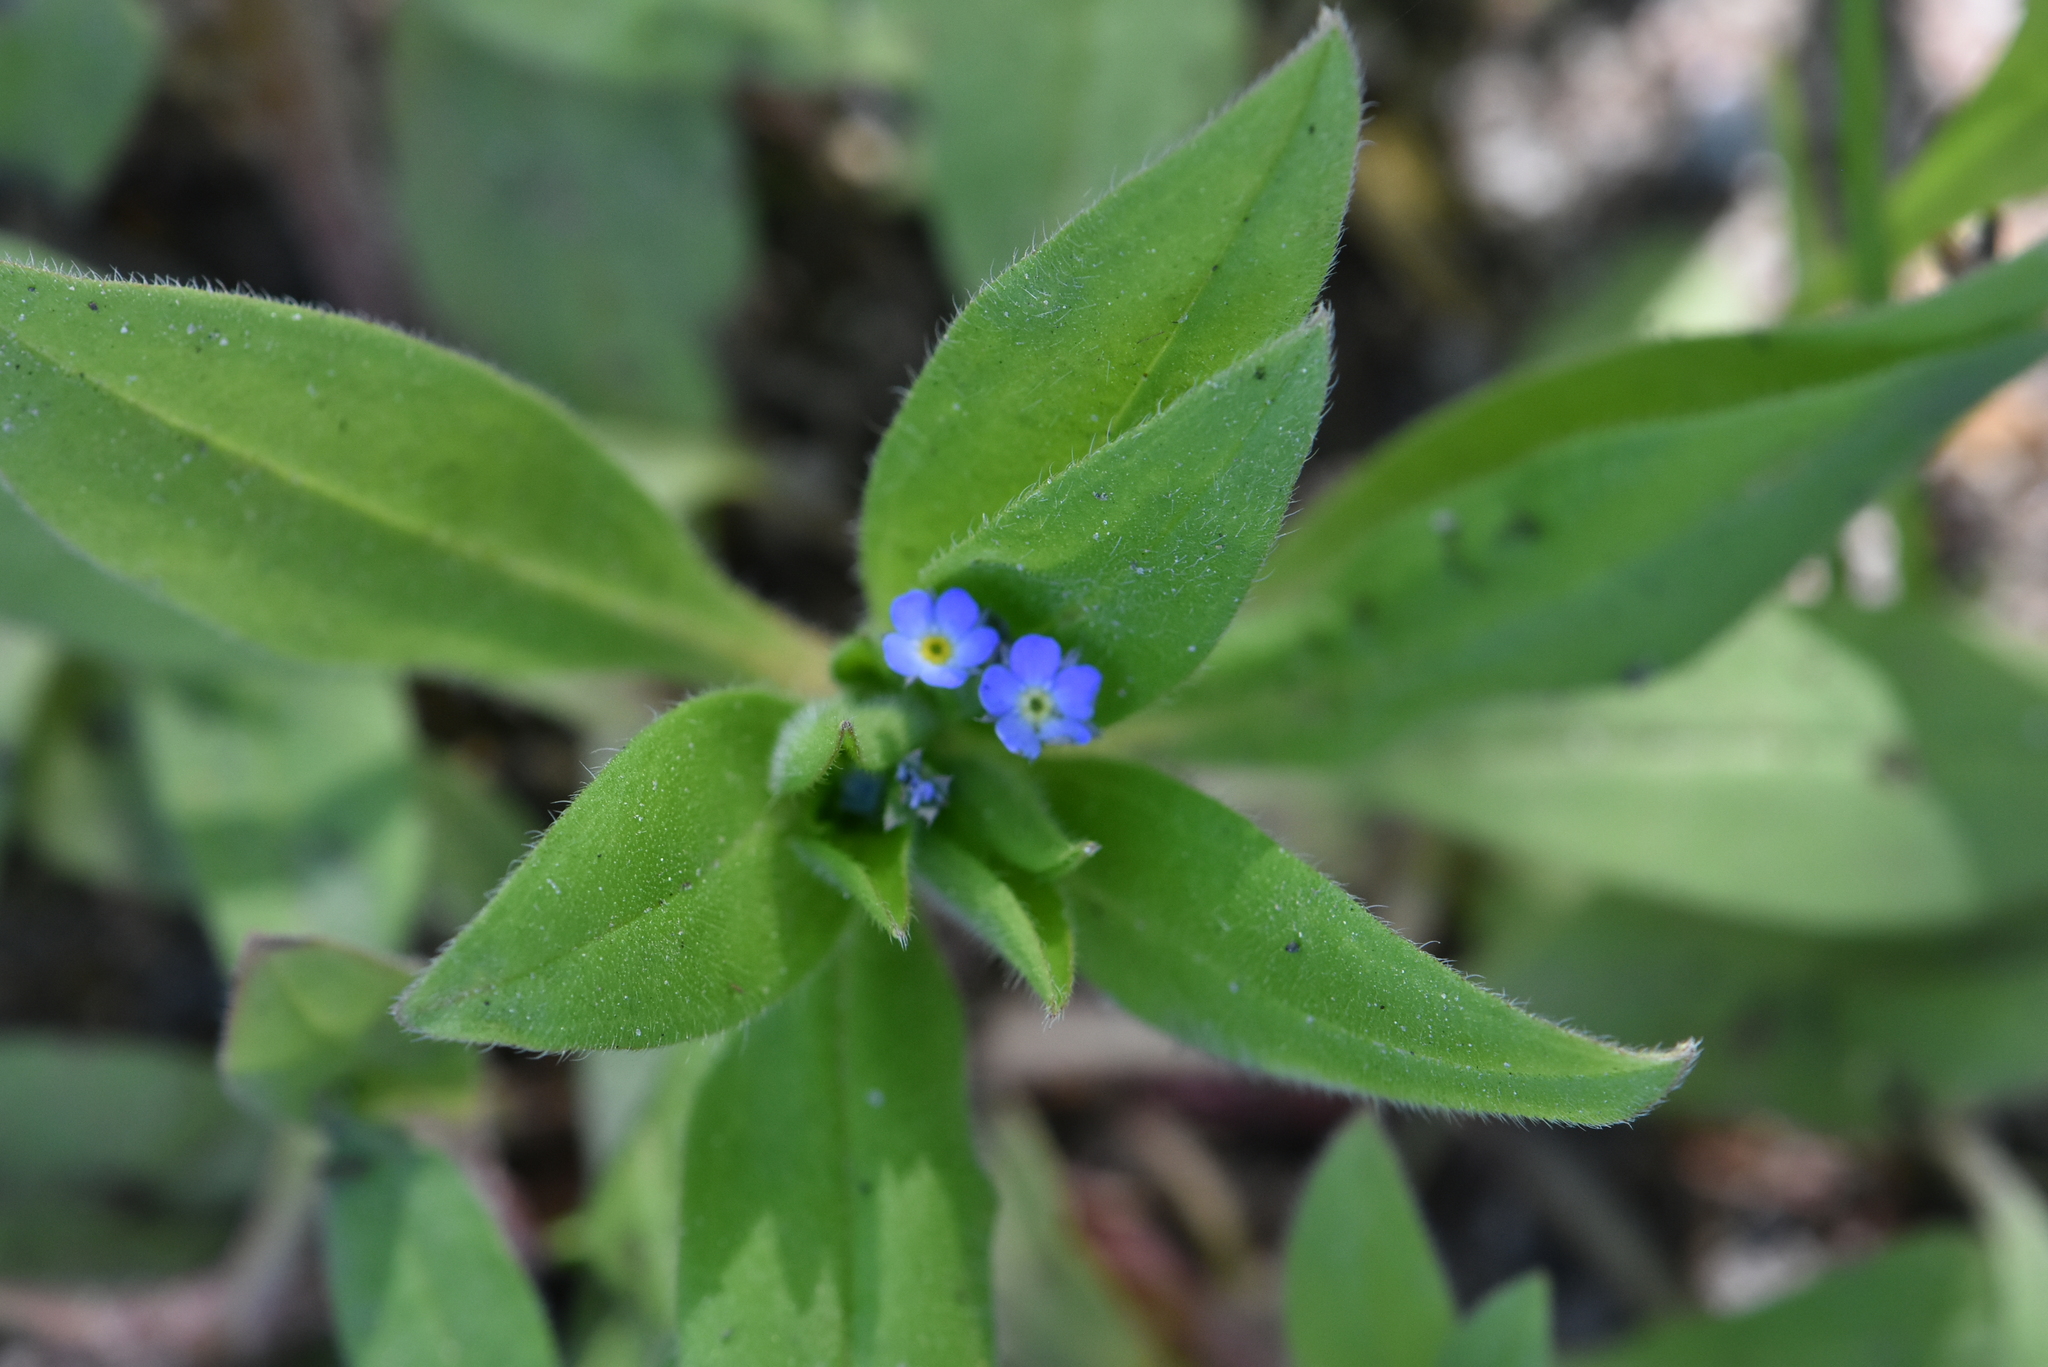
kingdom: Plantae
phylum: Tracheophyta
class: Magnoliopsida
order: Boraginales
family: Boraginaceae
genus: Myosotis
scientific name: Myosotis sparsiflora
